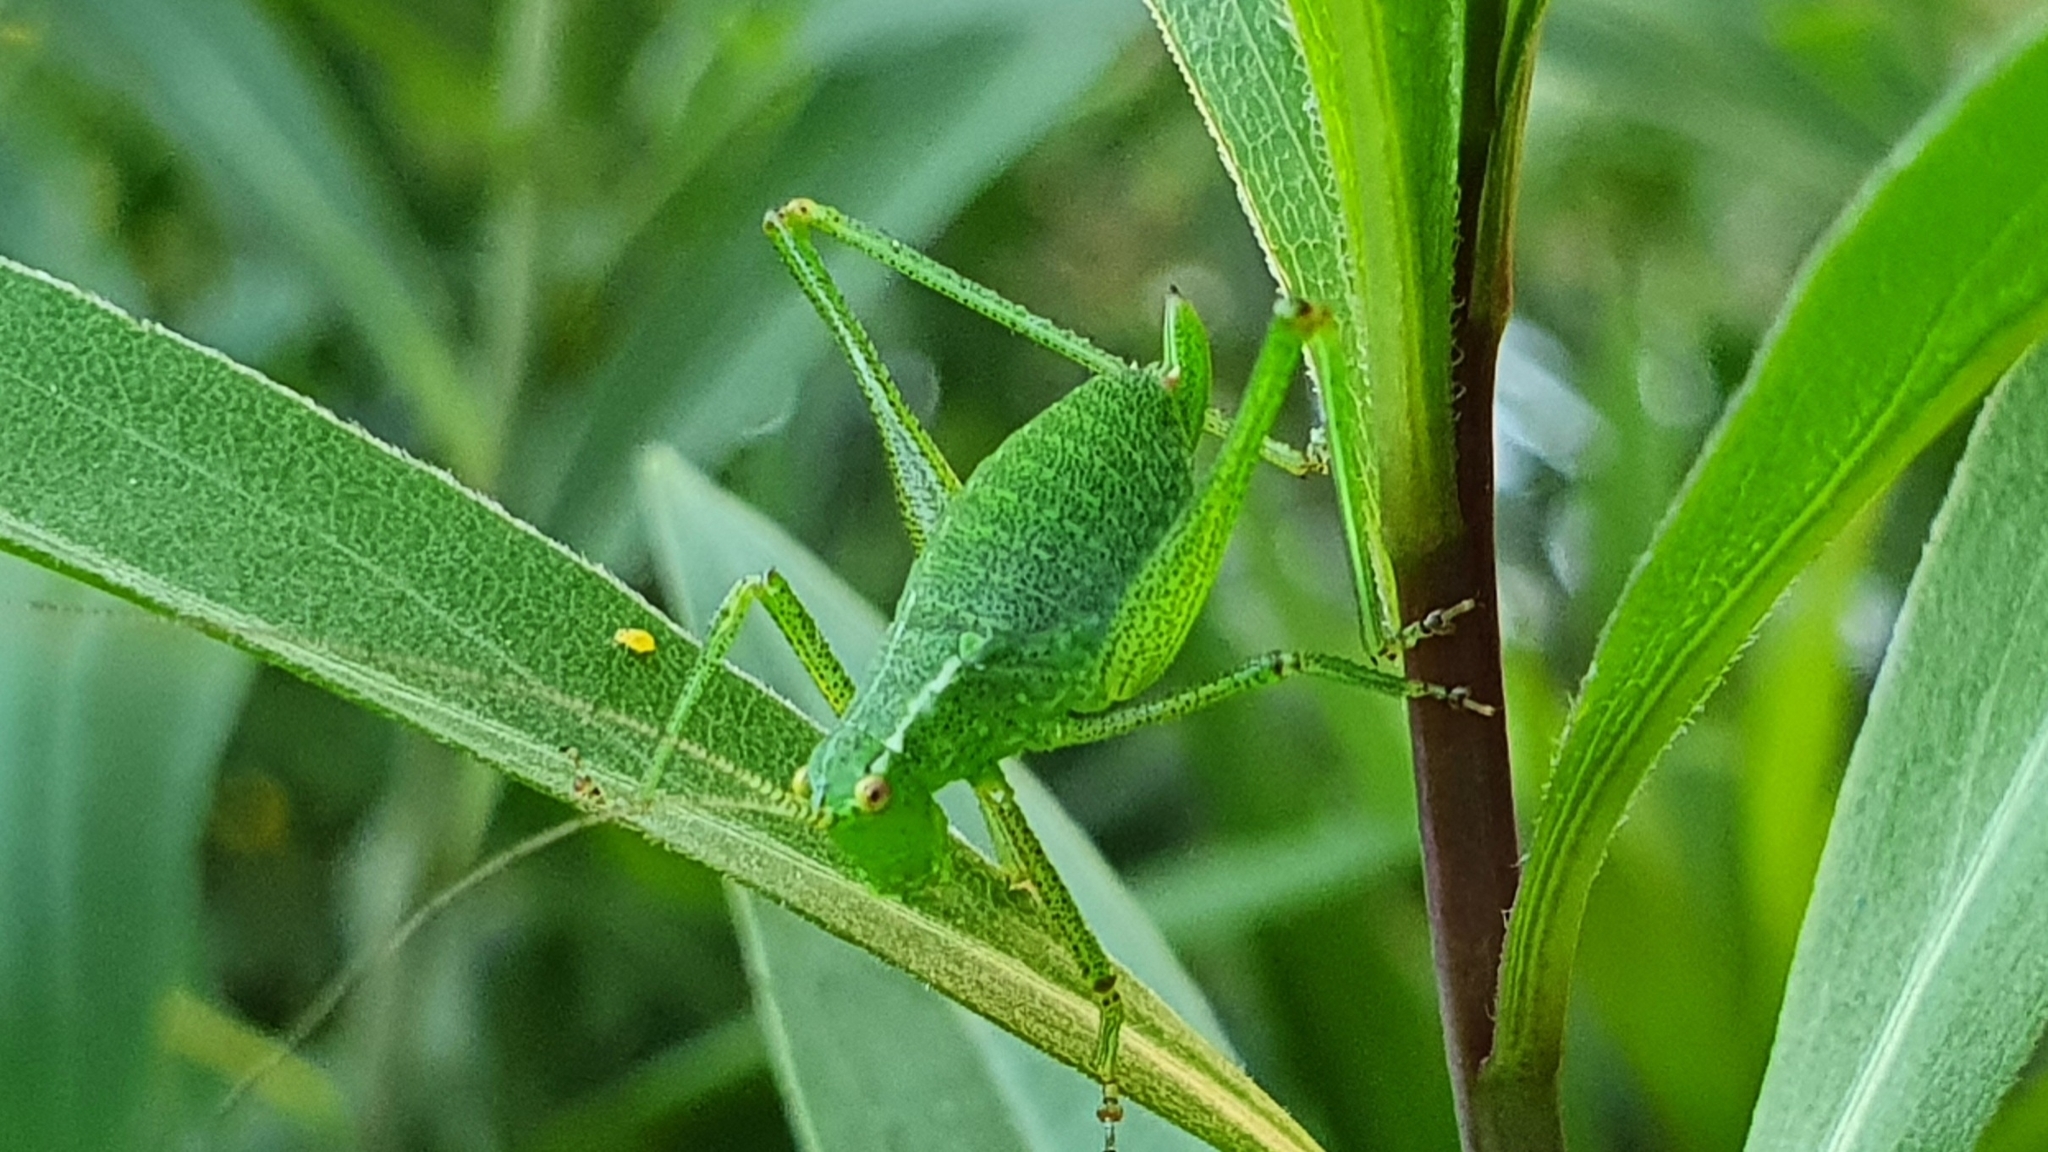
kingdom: Animalia
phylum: Arthropoda
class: Insecta
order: Orthoptera
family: Tettigoniidae
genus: Leptophyes
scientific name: Leptophyes punctatissima
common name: Speckled bush-cricket
